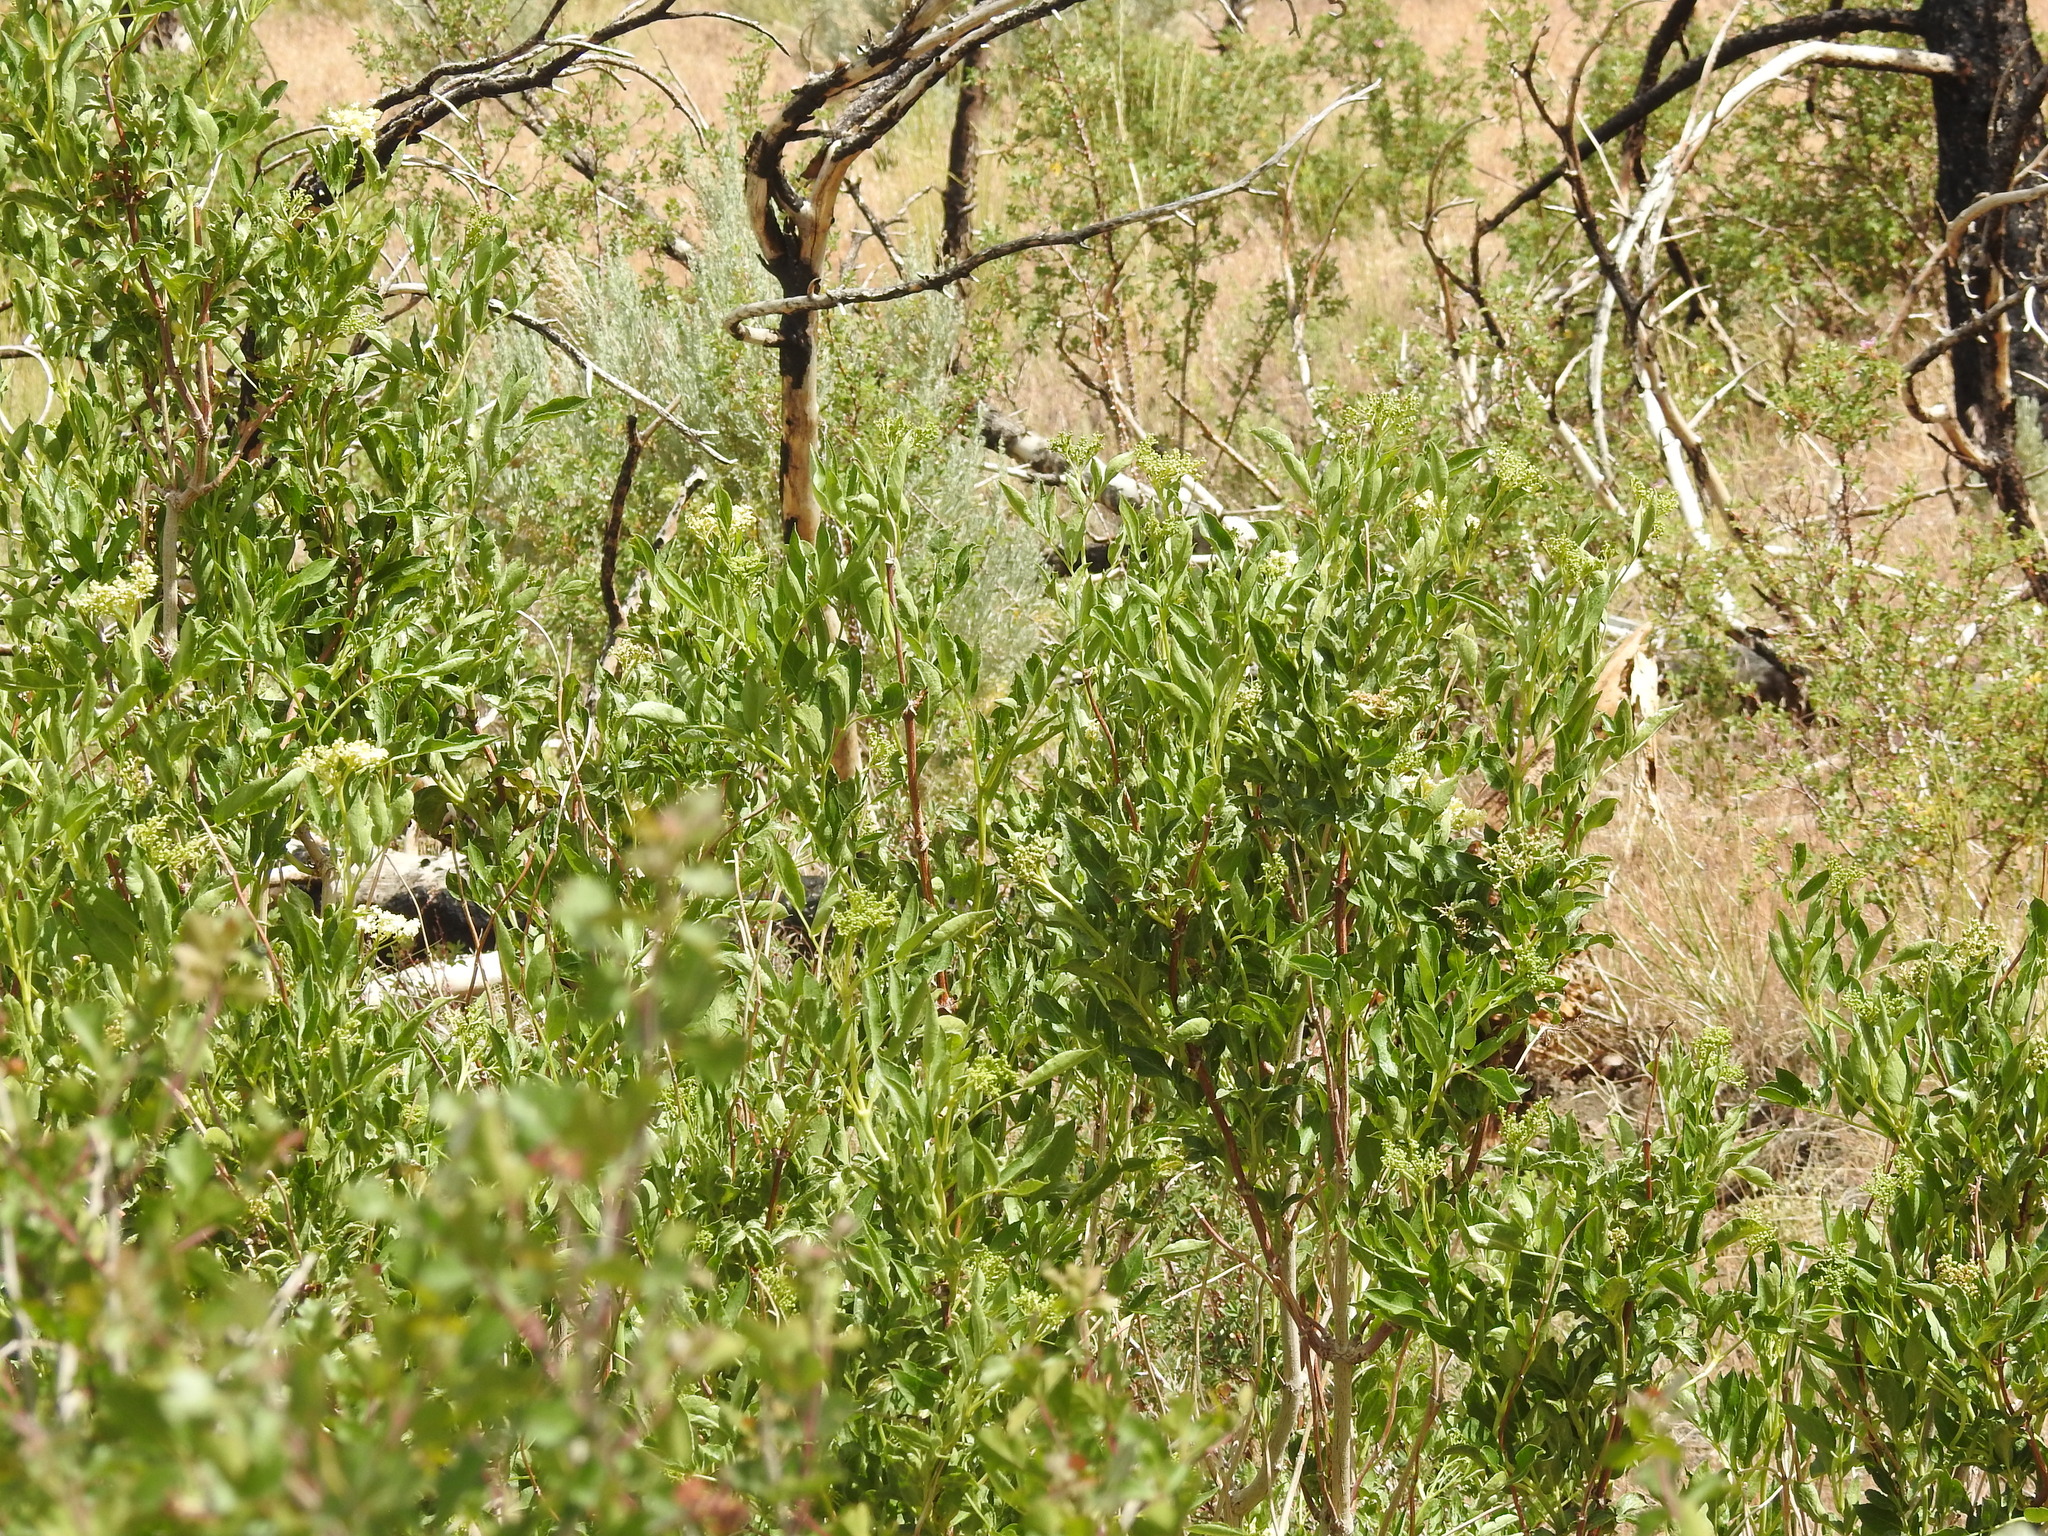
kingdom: Plantae
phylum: Tracheophyta
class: Magnoliopsida
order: Dipsacales
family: Viburnaceae
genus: Sambucus
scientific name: Sambucus cerulea
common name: Blue elder
